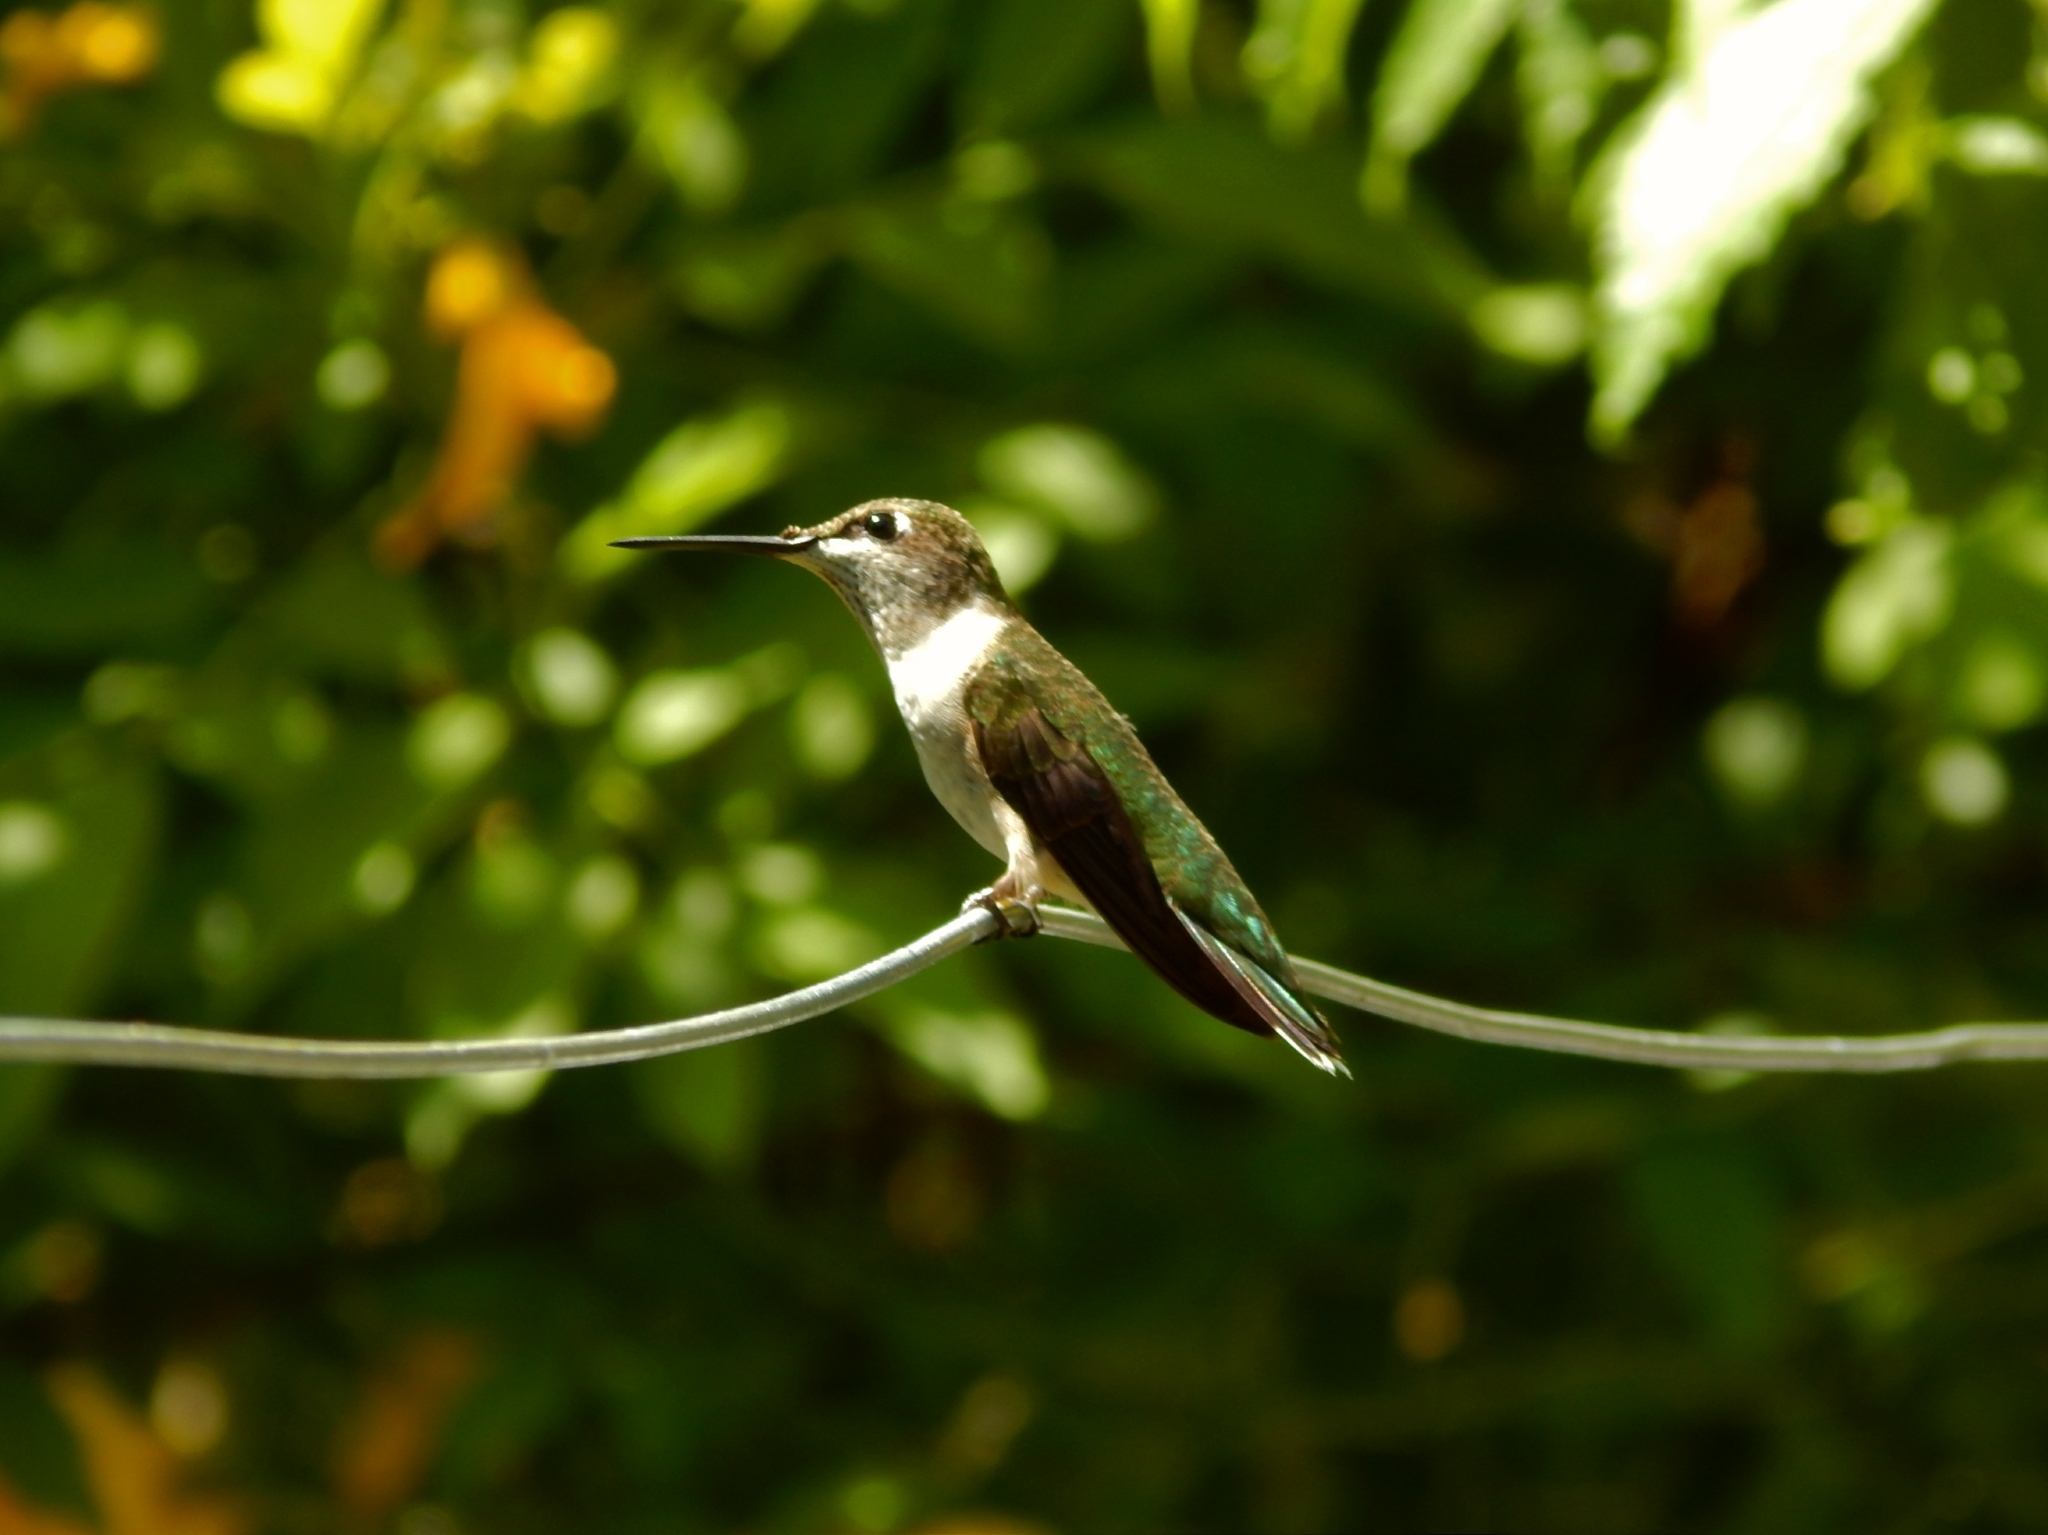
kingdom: Animalia
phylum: Chordata
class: Aves
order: Apodiformes
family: Trochilidae
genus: Archilochus
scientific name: Archilochus colubris
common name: Ruby-throated hummingbird
